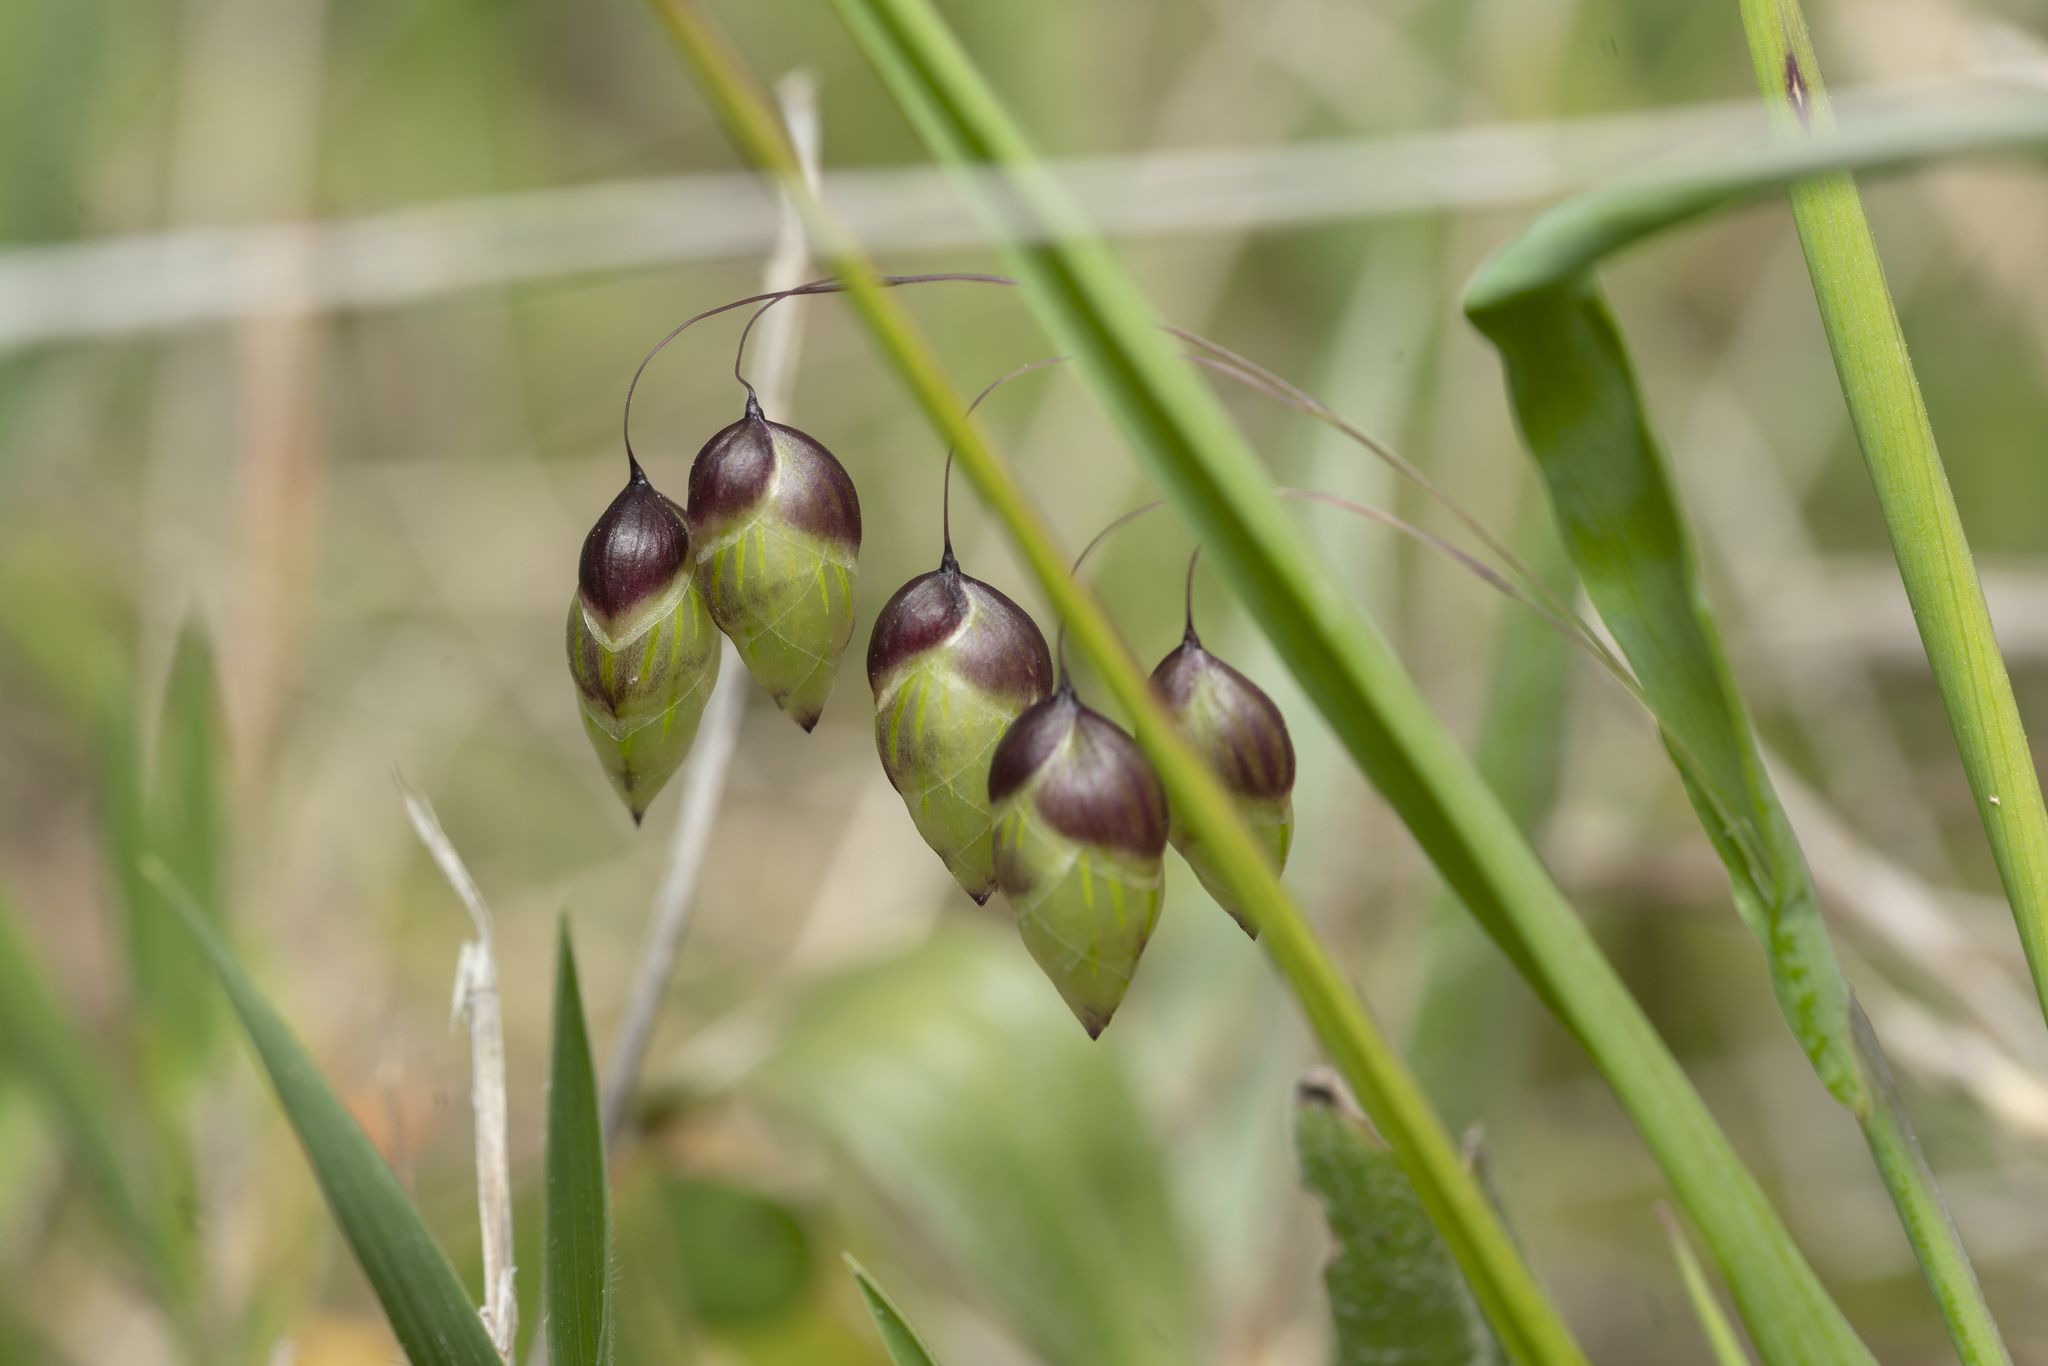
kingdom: Plantae
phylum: Tracheophyta
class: Liliopsida
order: Poales
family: Poaceae
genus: Briza
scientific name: Briza maxima
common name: Big quakinggrass
